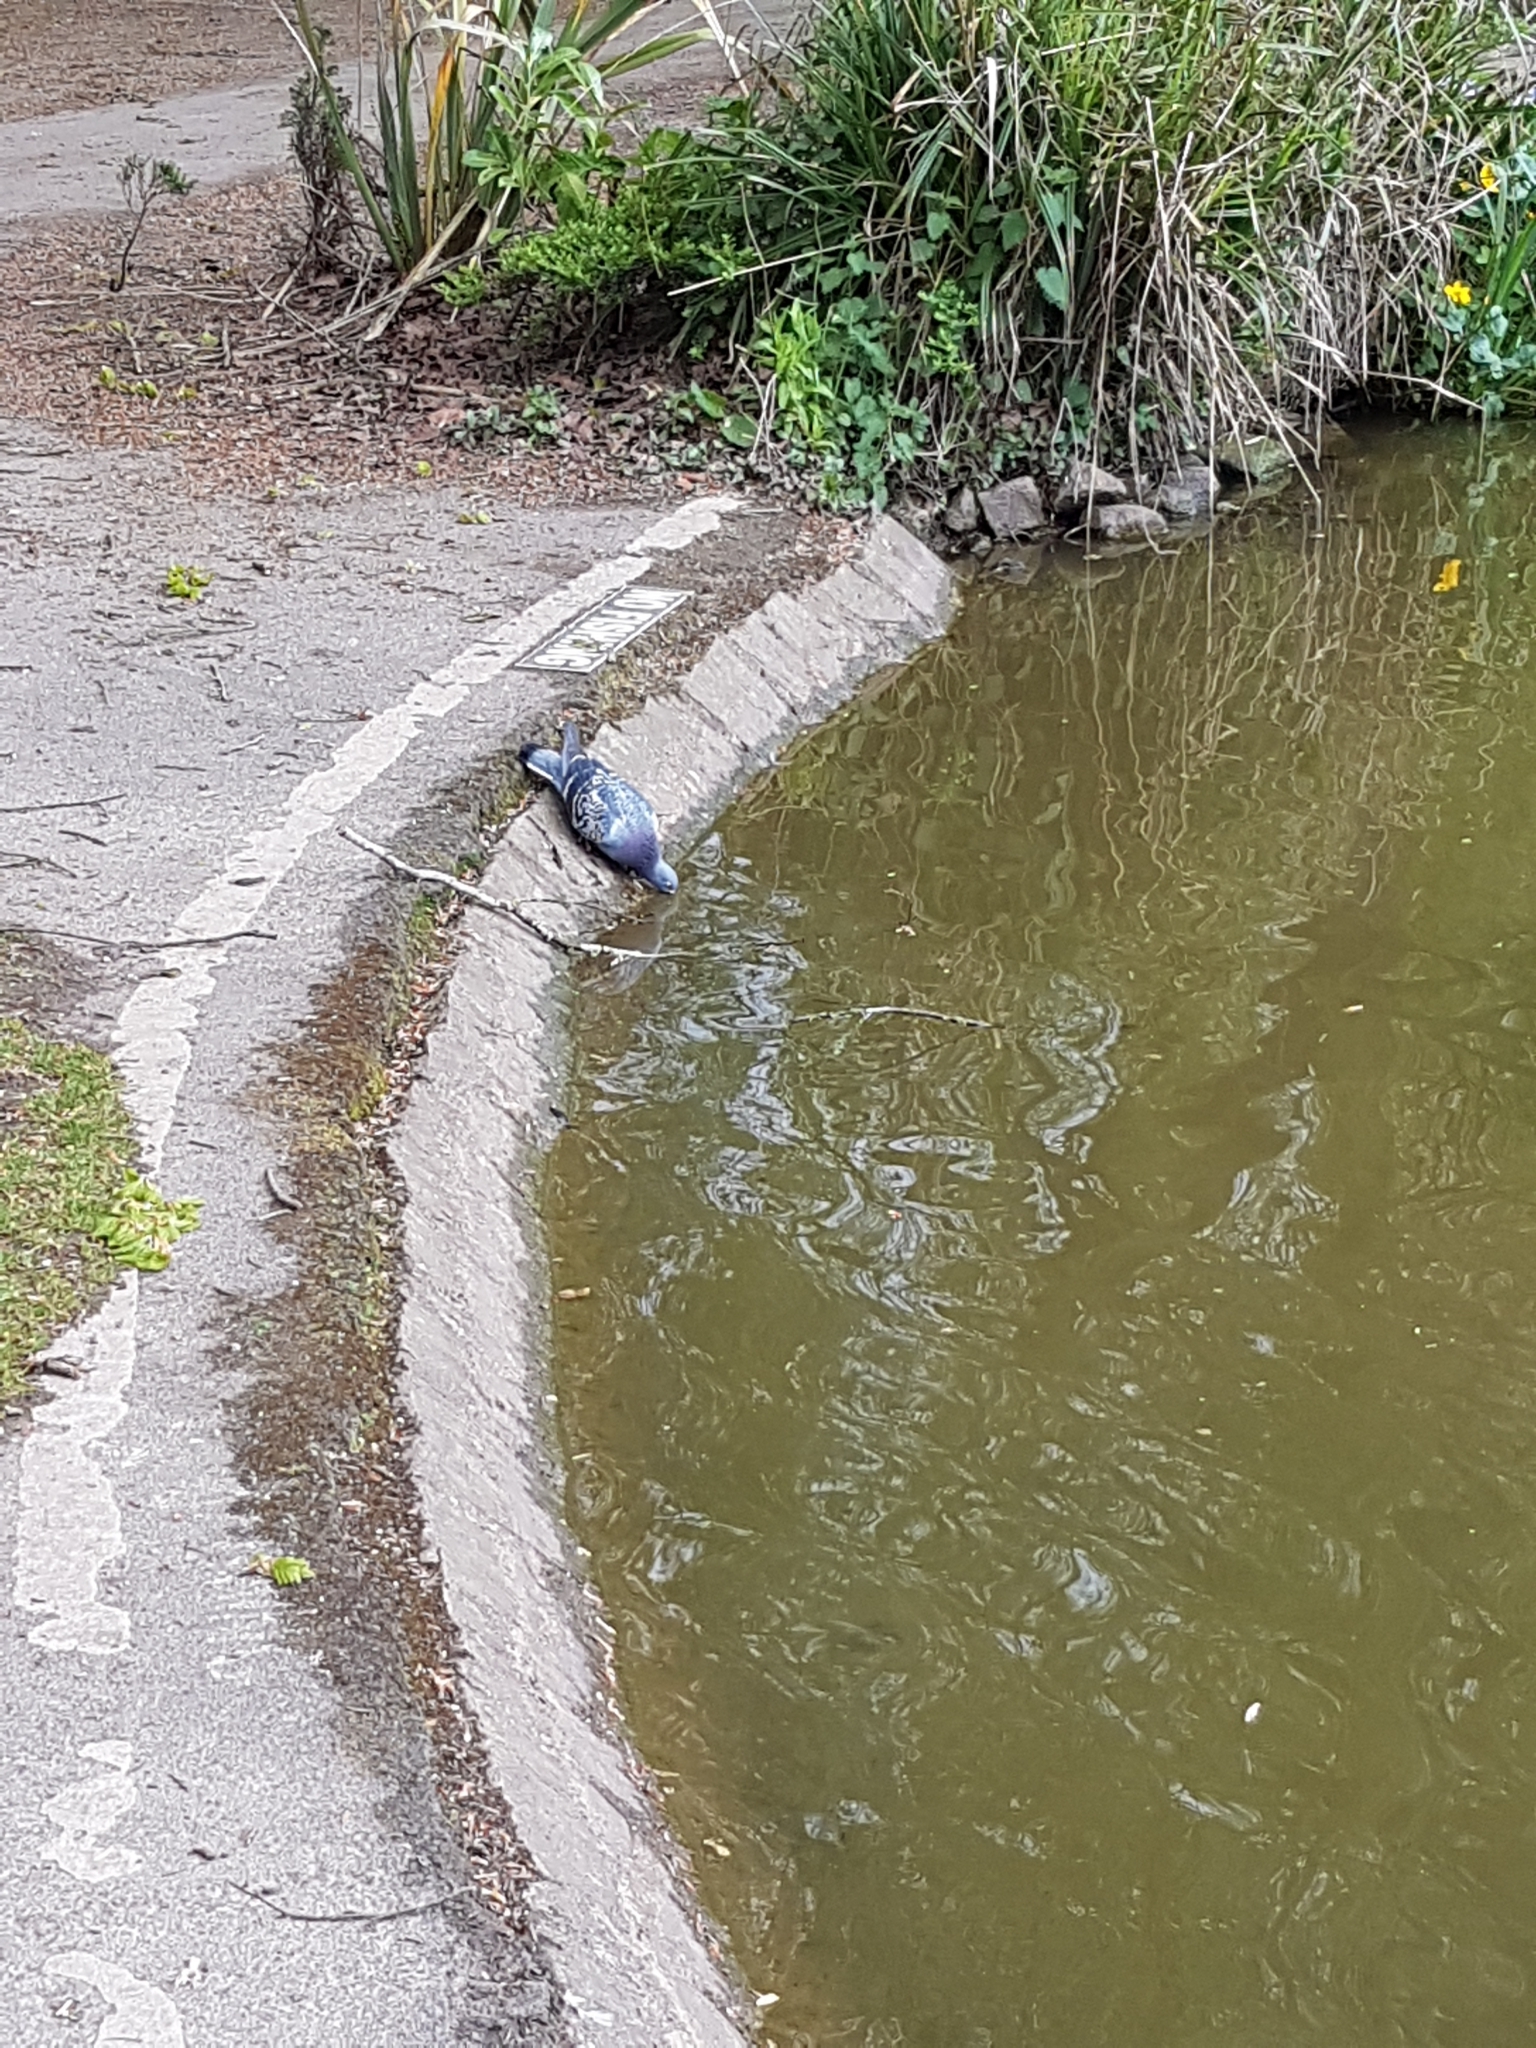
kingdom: Animalia
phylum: Chordata
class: Aves
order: Columbiformes
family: Columbidae
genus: Columba
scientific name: Columba livia
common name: Rock pigeon
